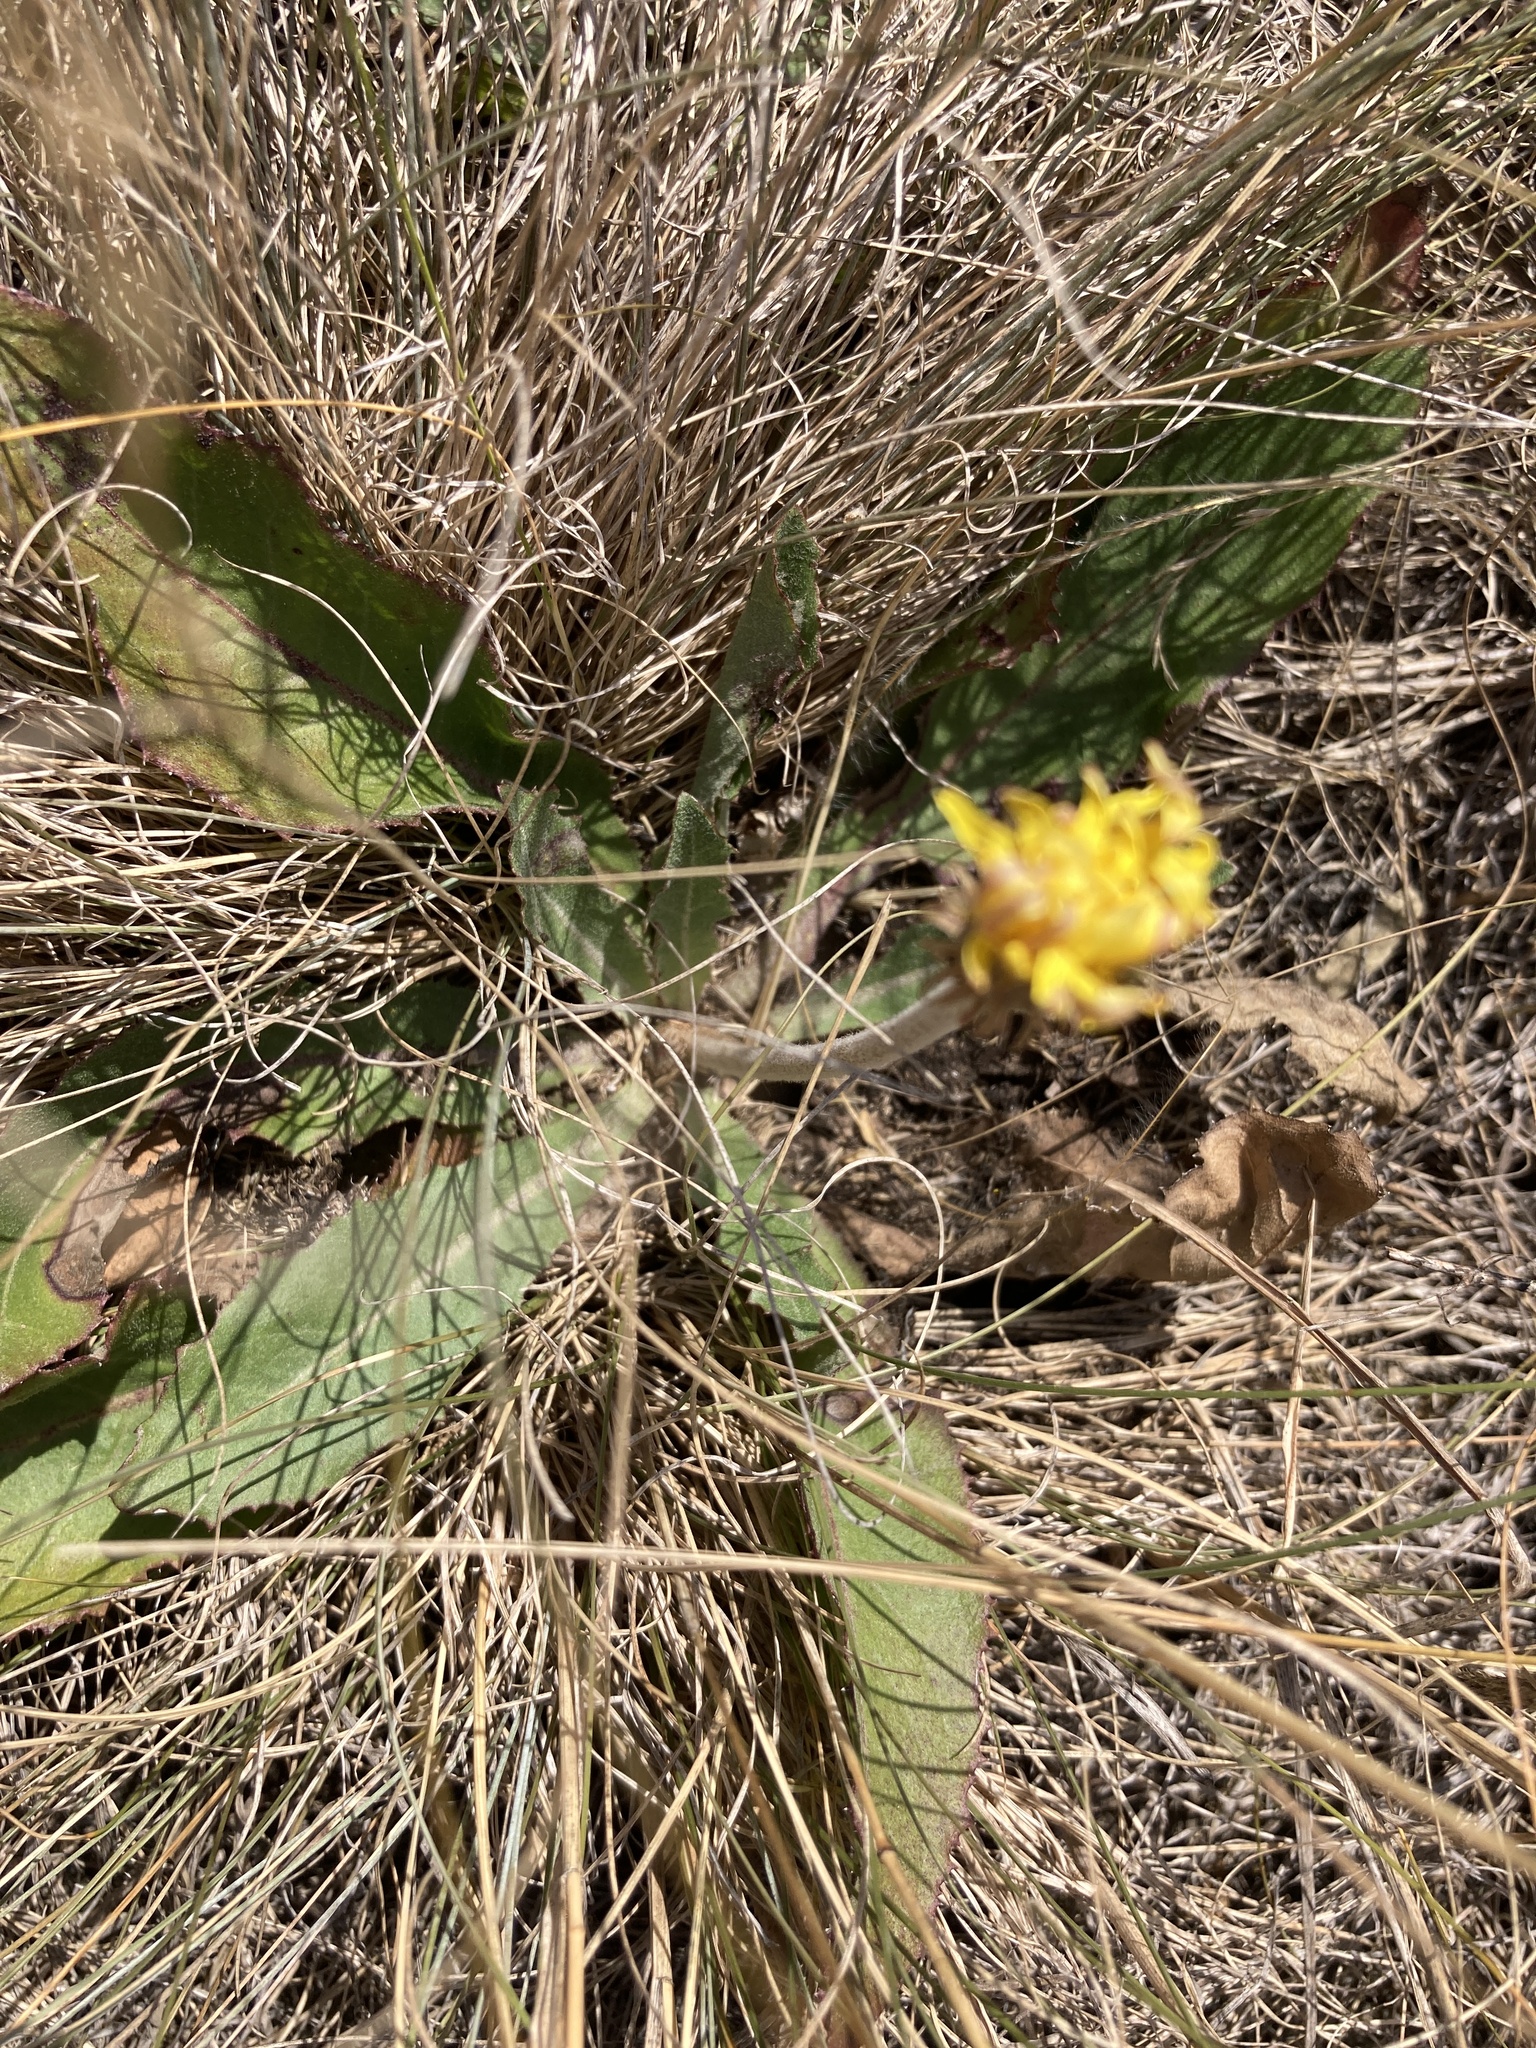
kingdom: Plantae
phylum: Tracheophyta
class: Magnoliopsida
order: Asterales
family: Asteraceae
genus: Taraxacum
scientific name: Taraxacum serotinum
